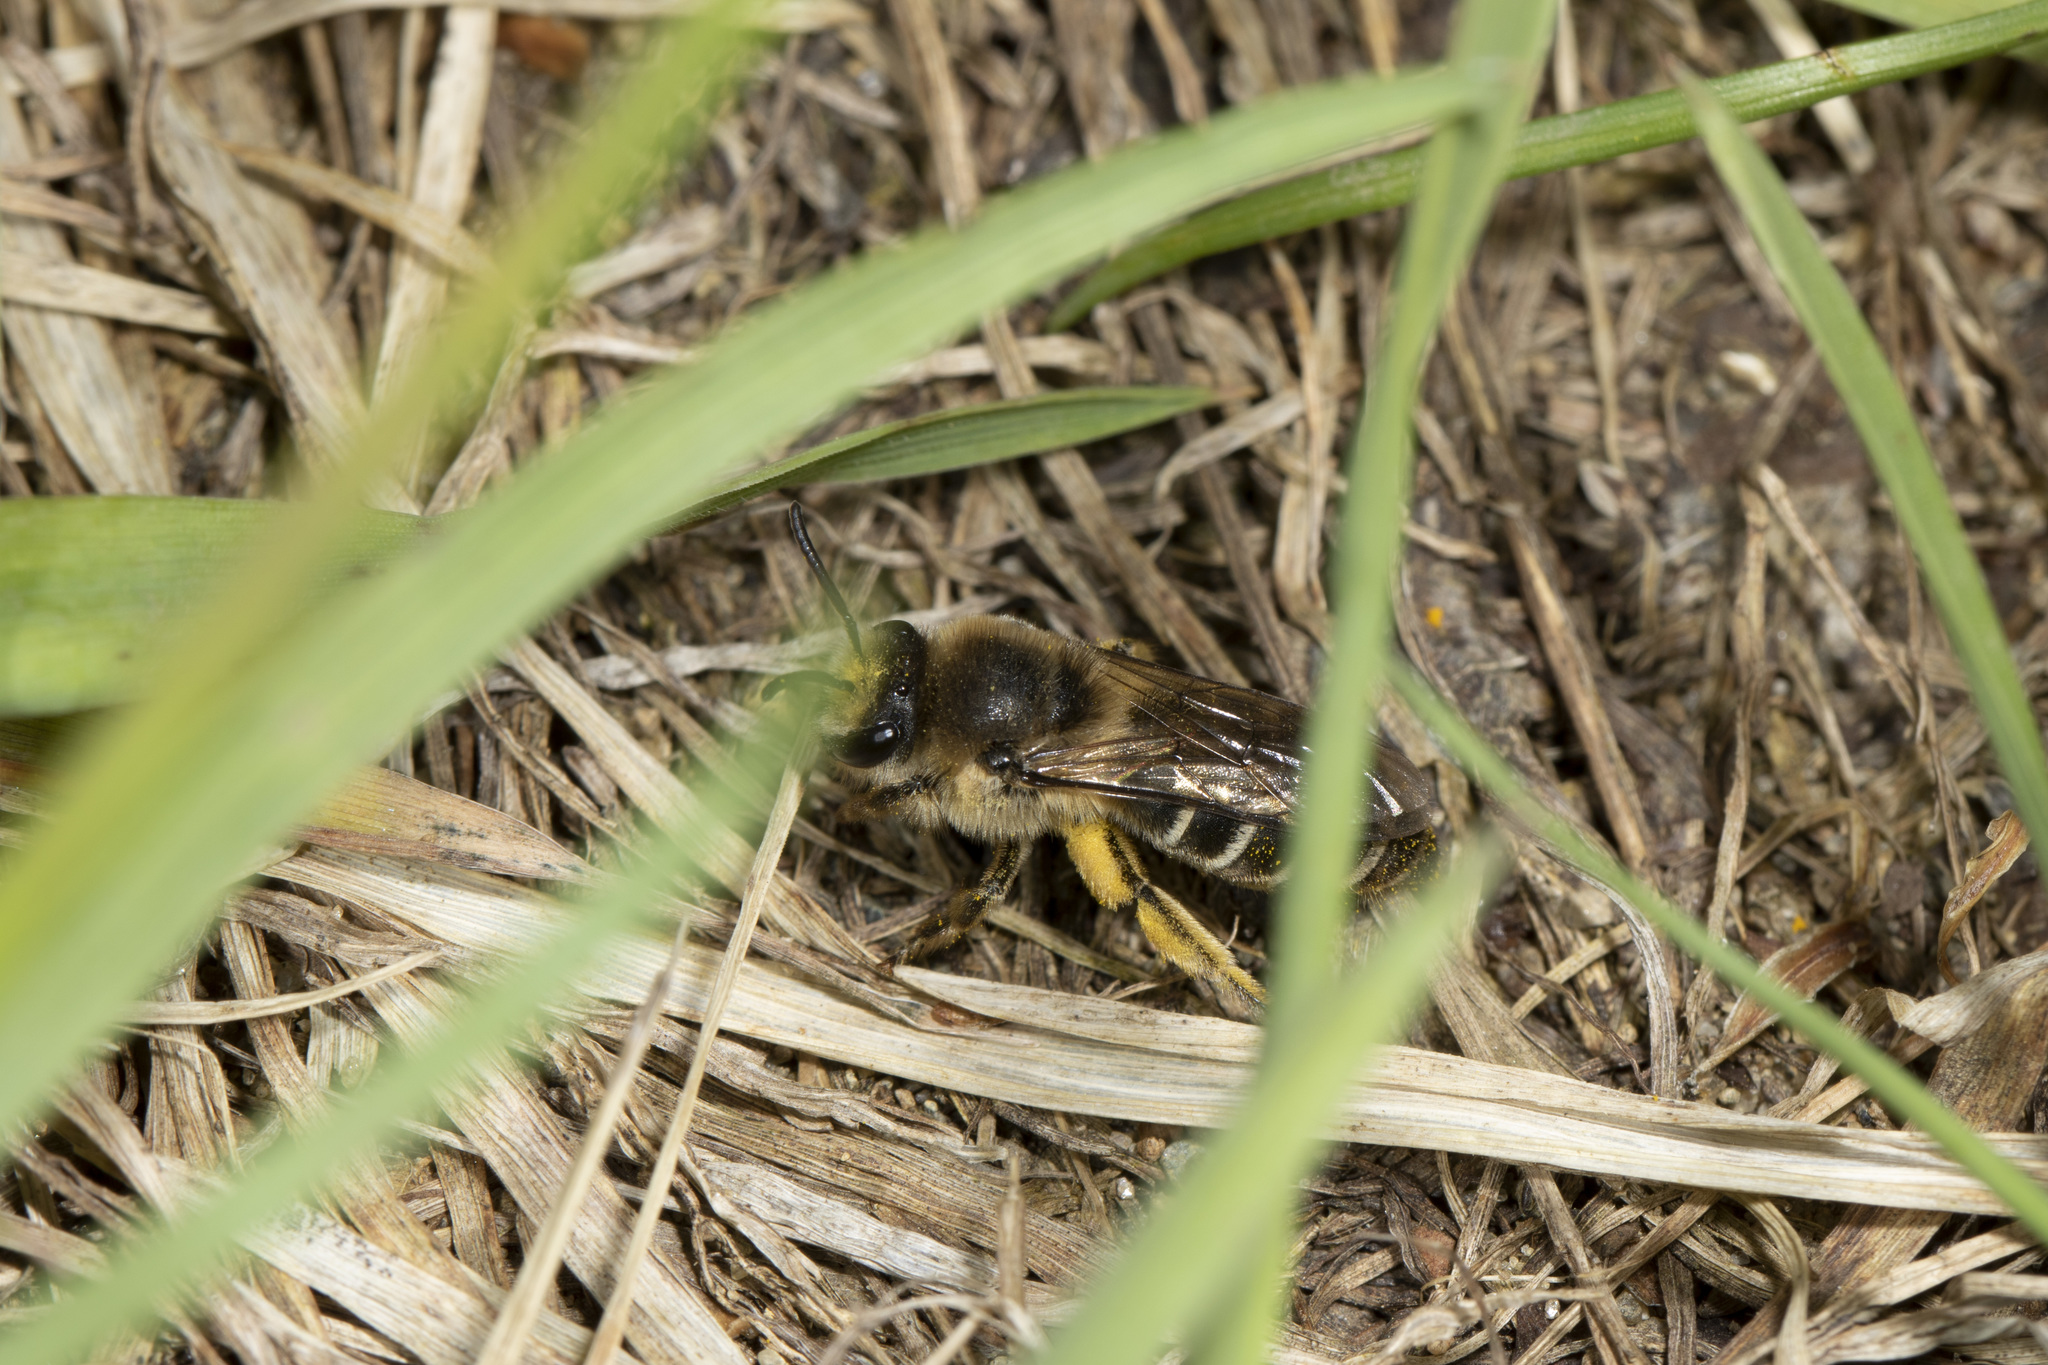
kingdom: Animalia
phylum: Arthropoda
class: Insecta
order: Hymenoptera
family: Colletidae
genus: Colletes
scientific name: Colletes inaequalis
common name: Unequal cellophane bee
